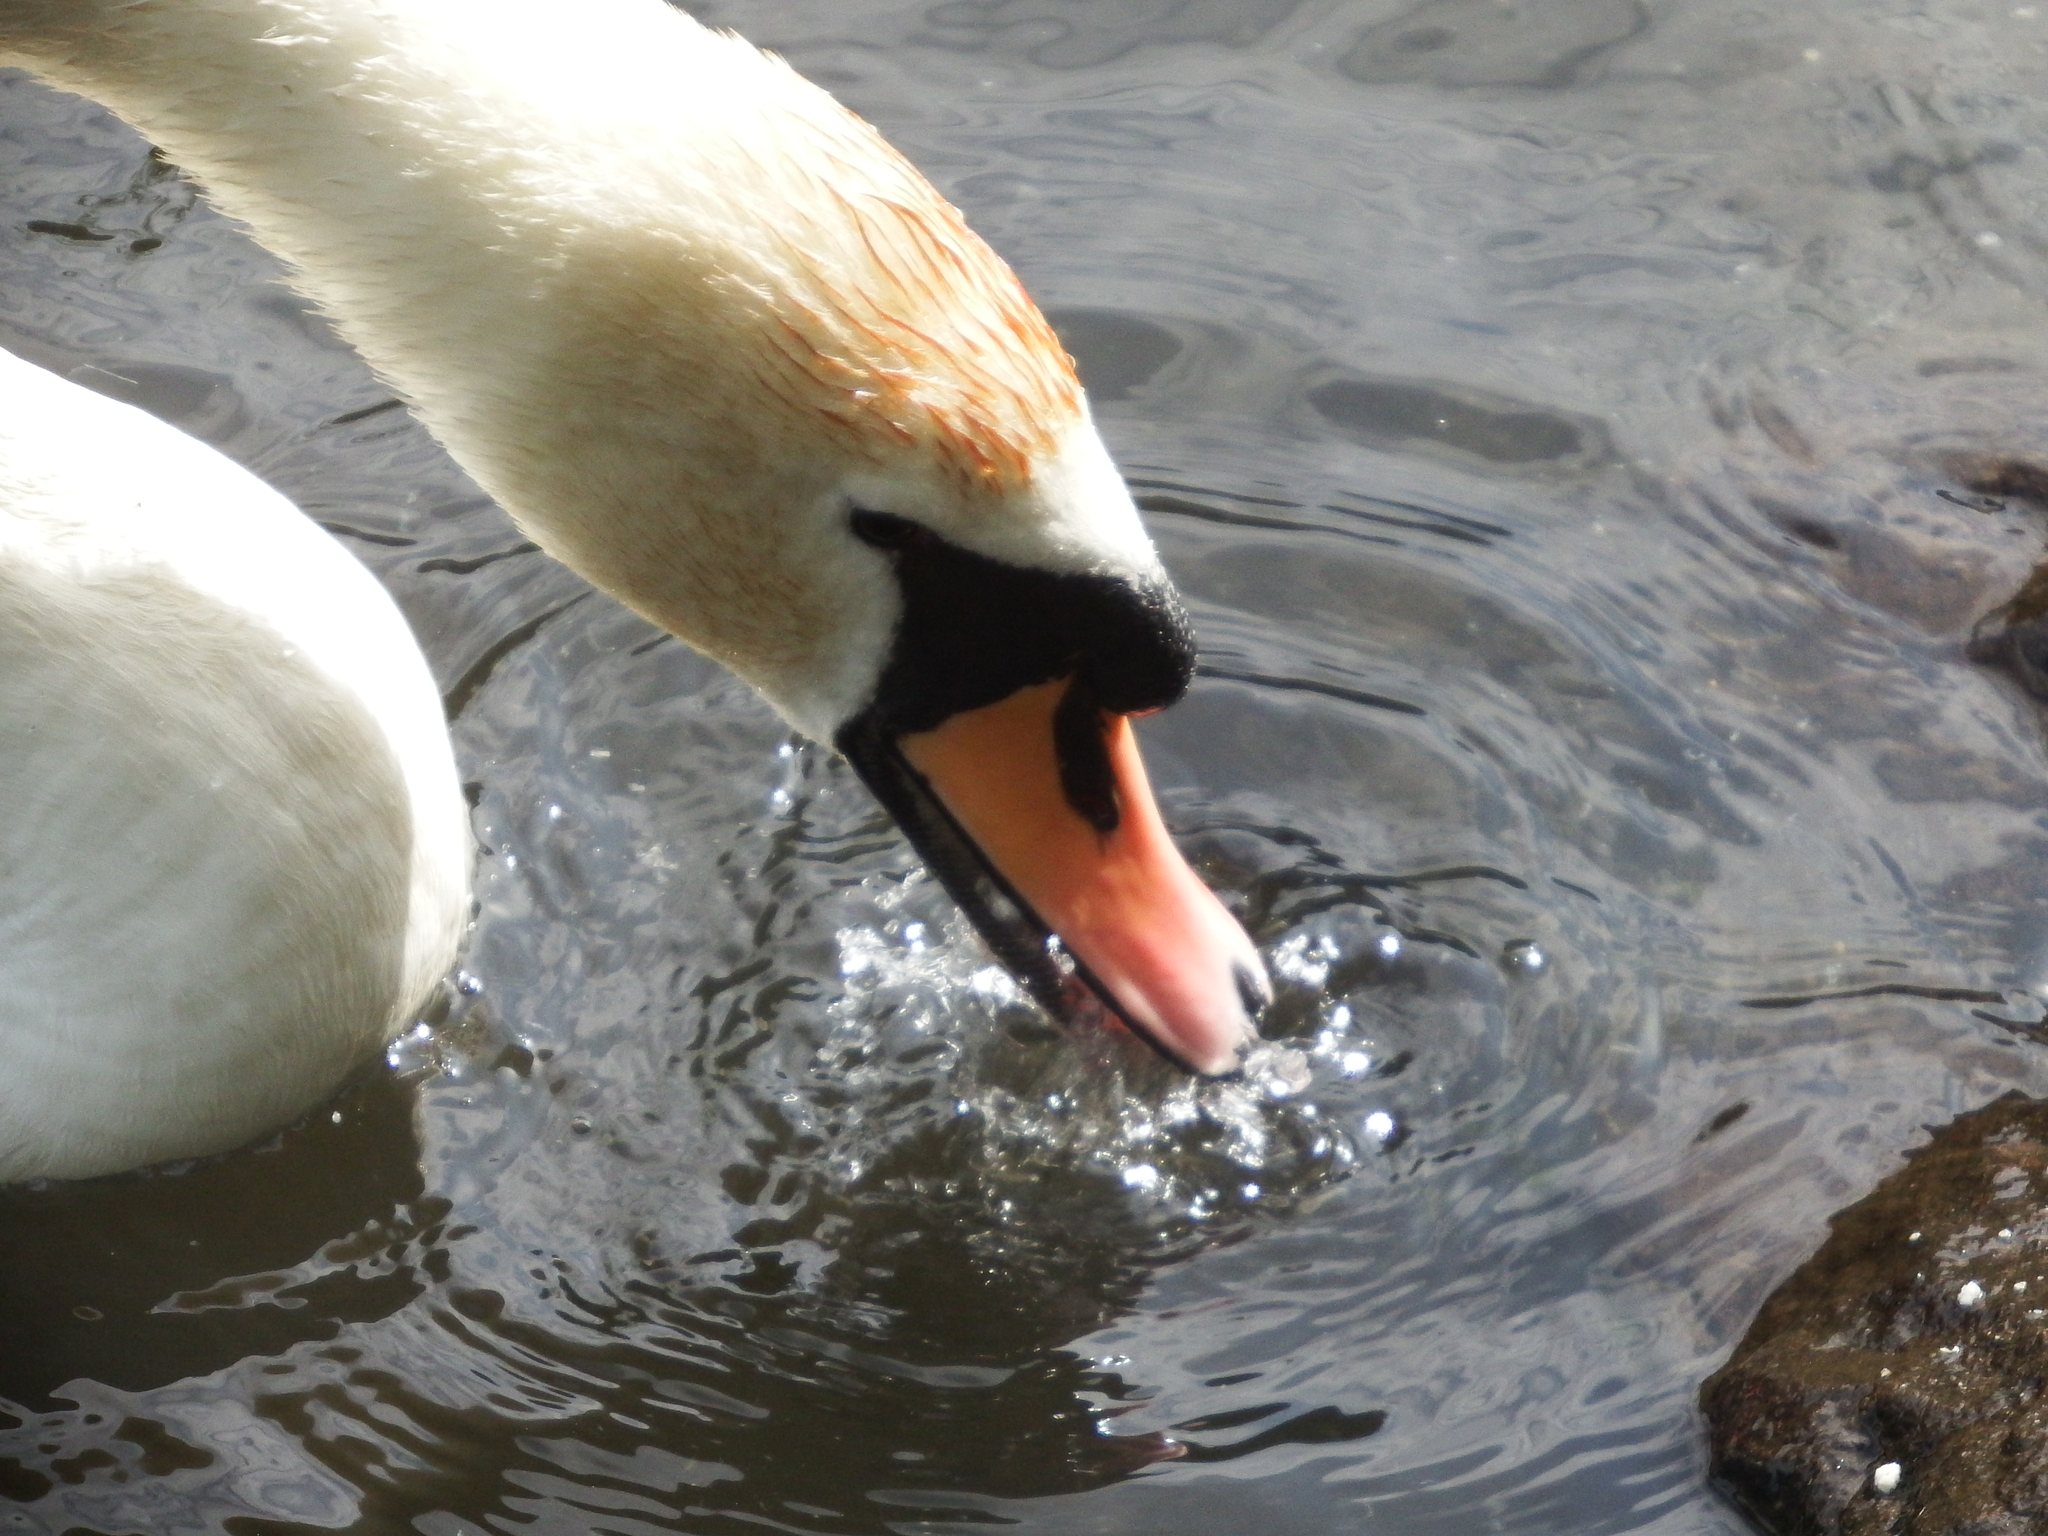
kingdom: Animalia
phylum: Chordata
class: Aves
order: Anseriformes
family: Anatidae
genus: Cygnus
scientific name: Cygnus olor
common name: Mute swan
